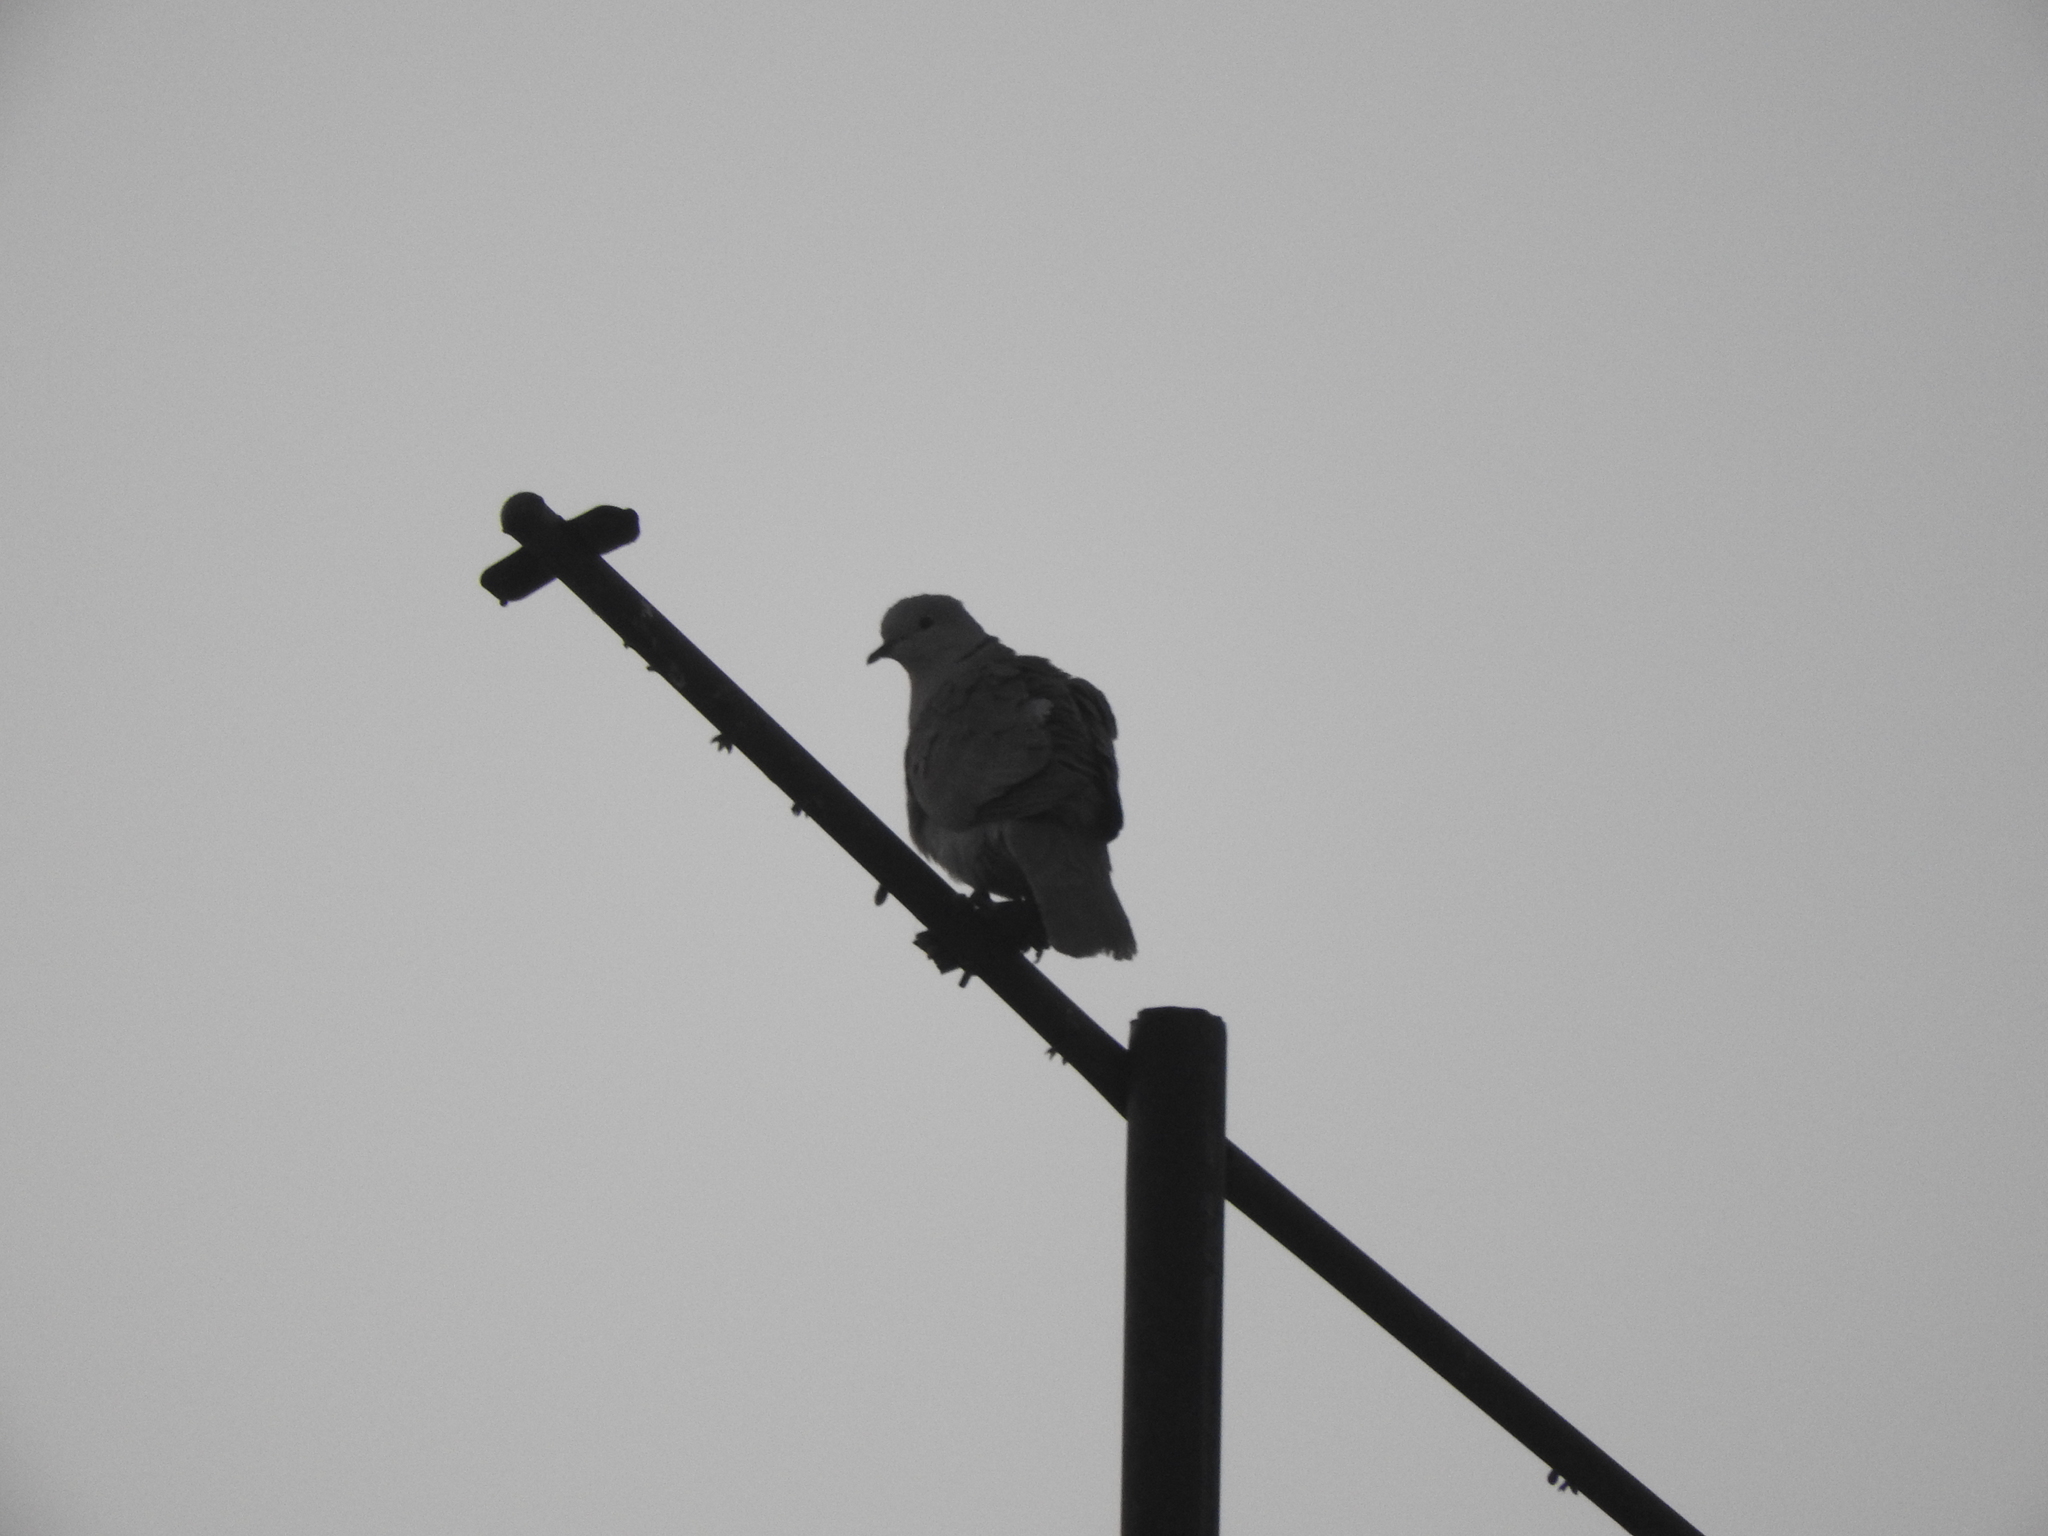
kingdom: Animalia
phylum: Chordata
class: Aves
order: Columbiformes
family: Columbidae
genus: Streptopelia
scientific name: Streptopelia decaocto
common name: Eurasian collared dove
